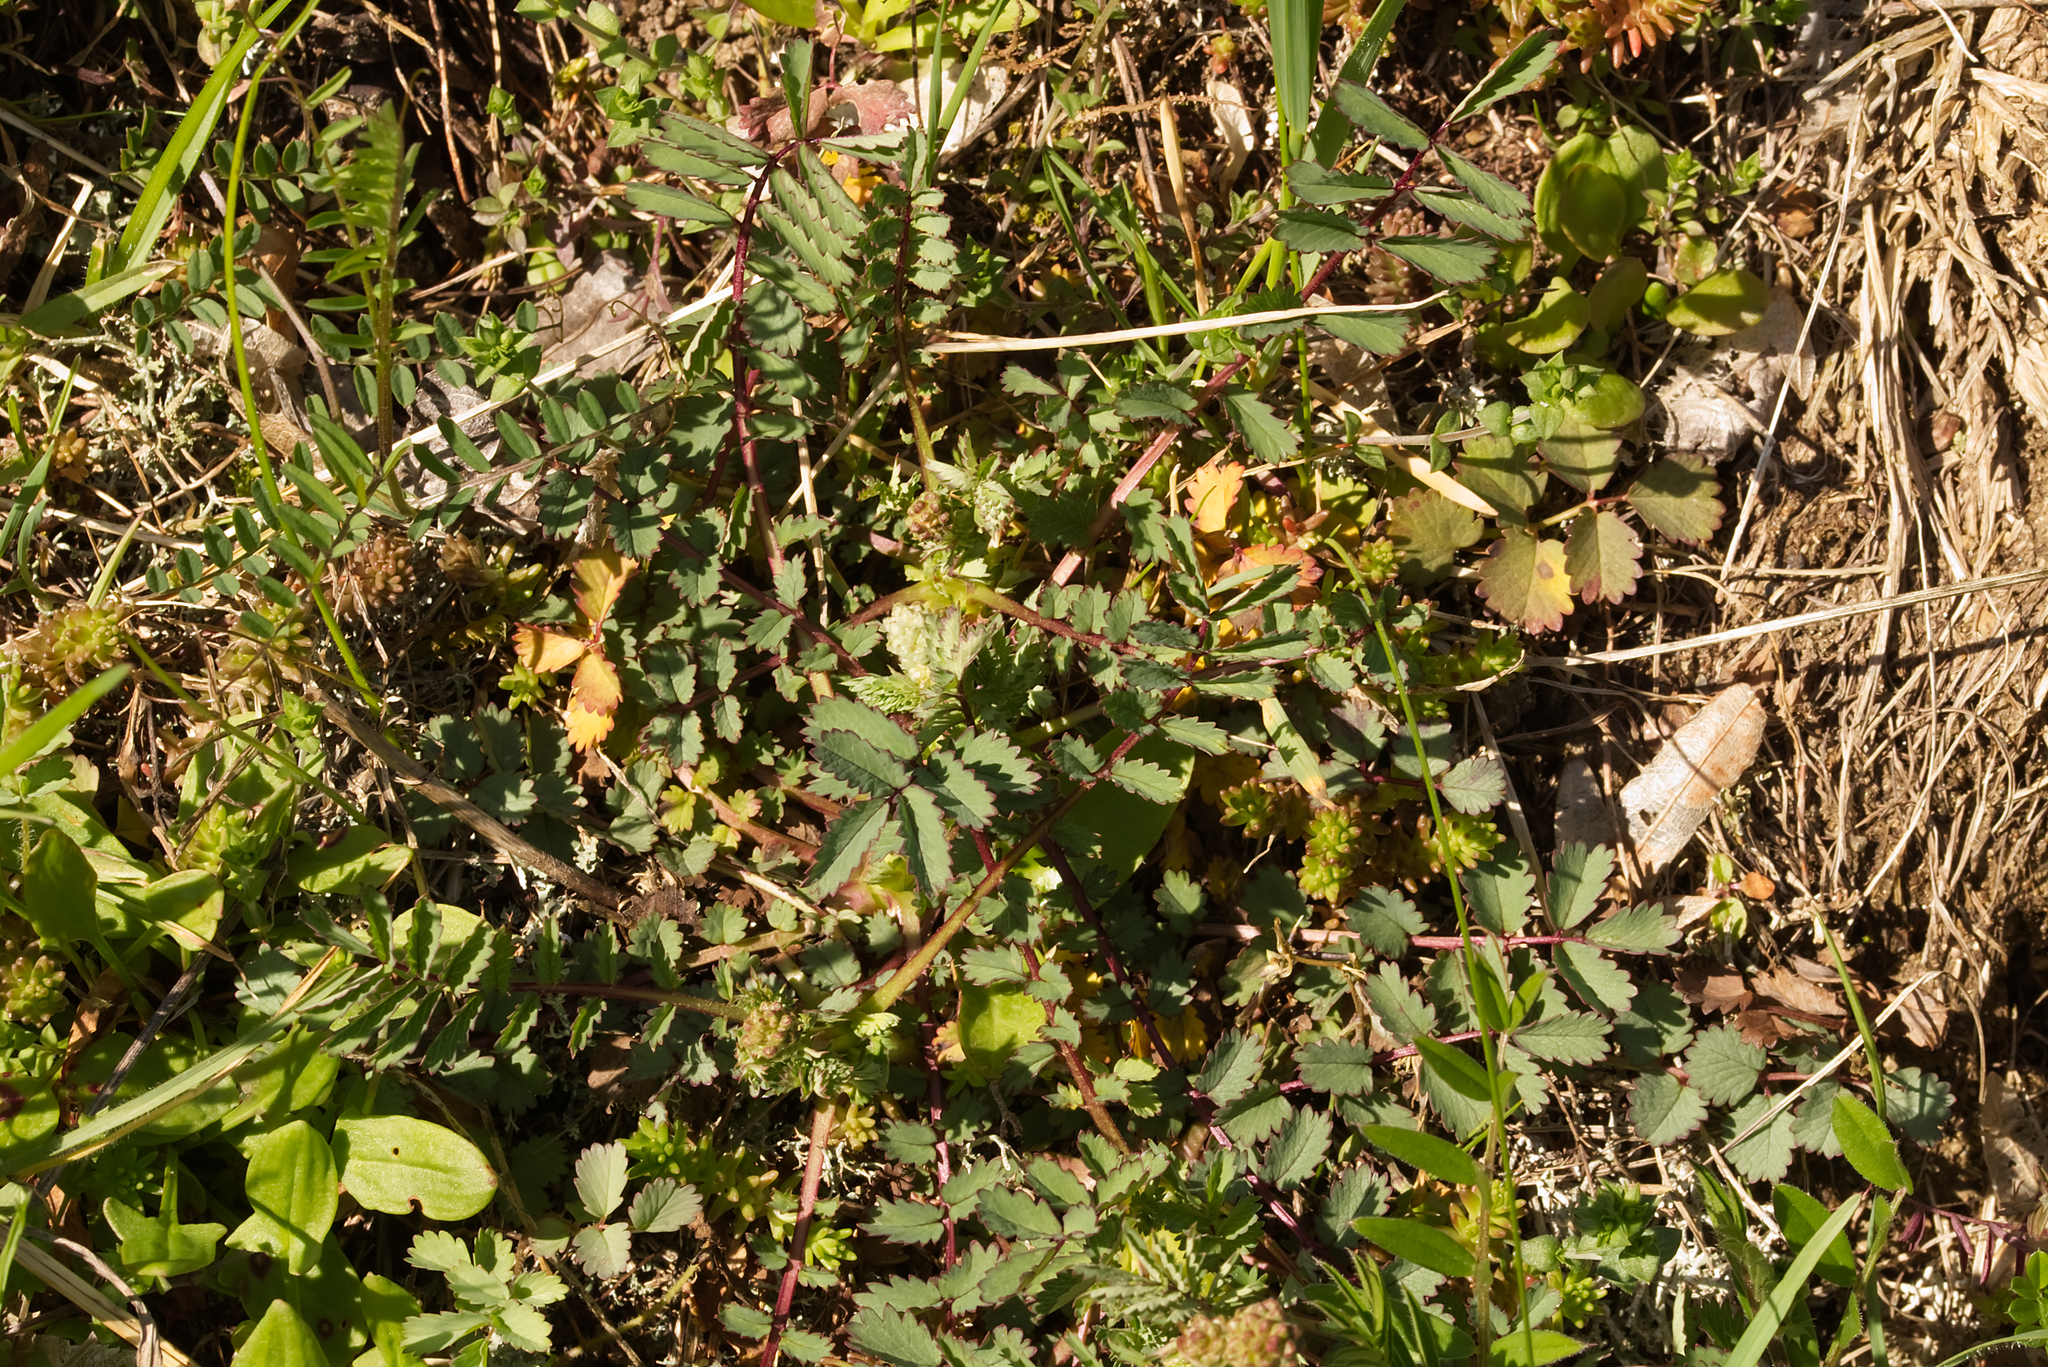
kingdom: Plantae
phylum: Tracheophyta
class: Magnoliopsida
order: Rosales
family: Rosaceae
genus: Poterium
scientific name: Poterium sanguisorba
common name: Salad burnet
